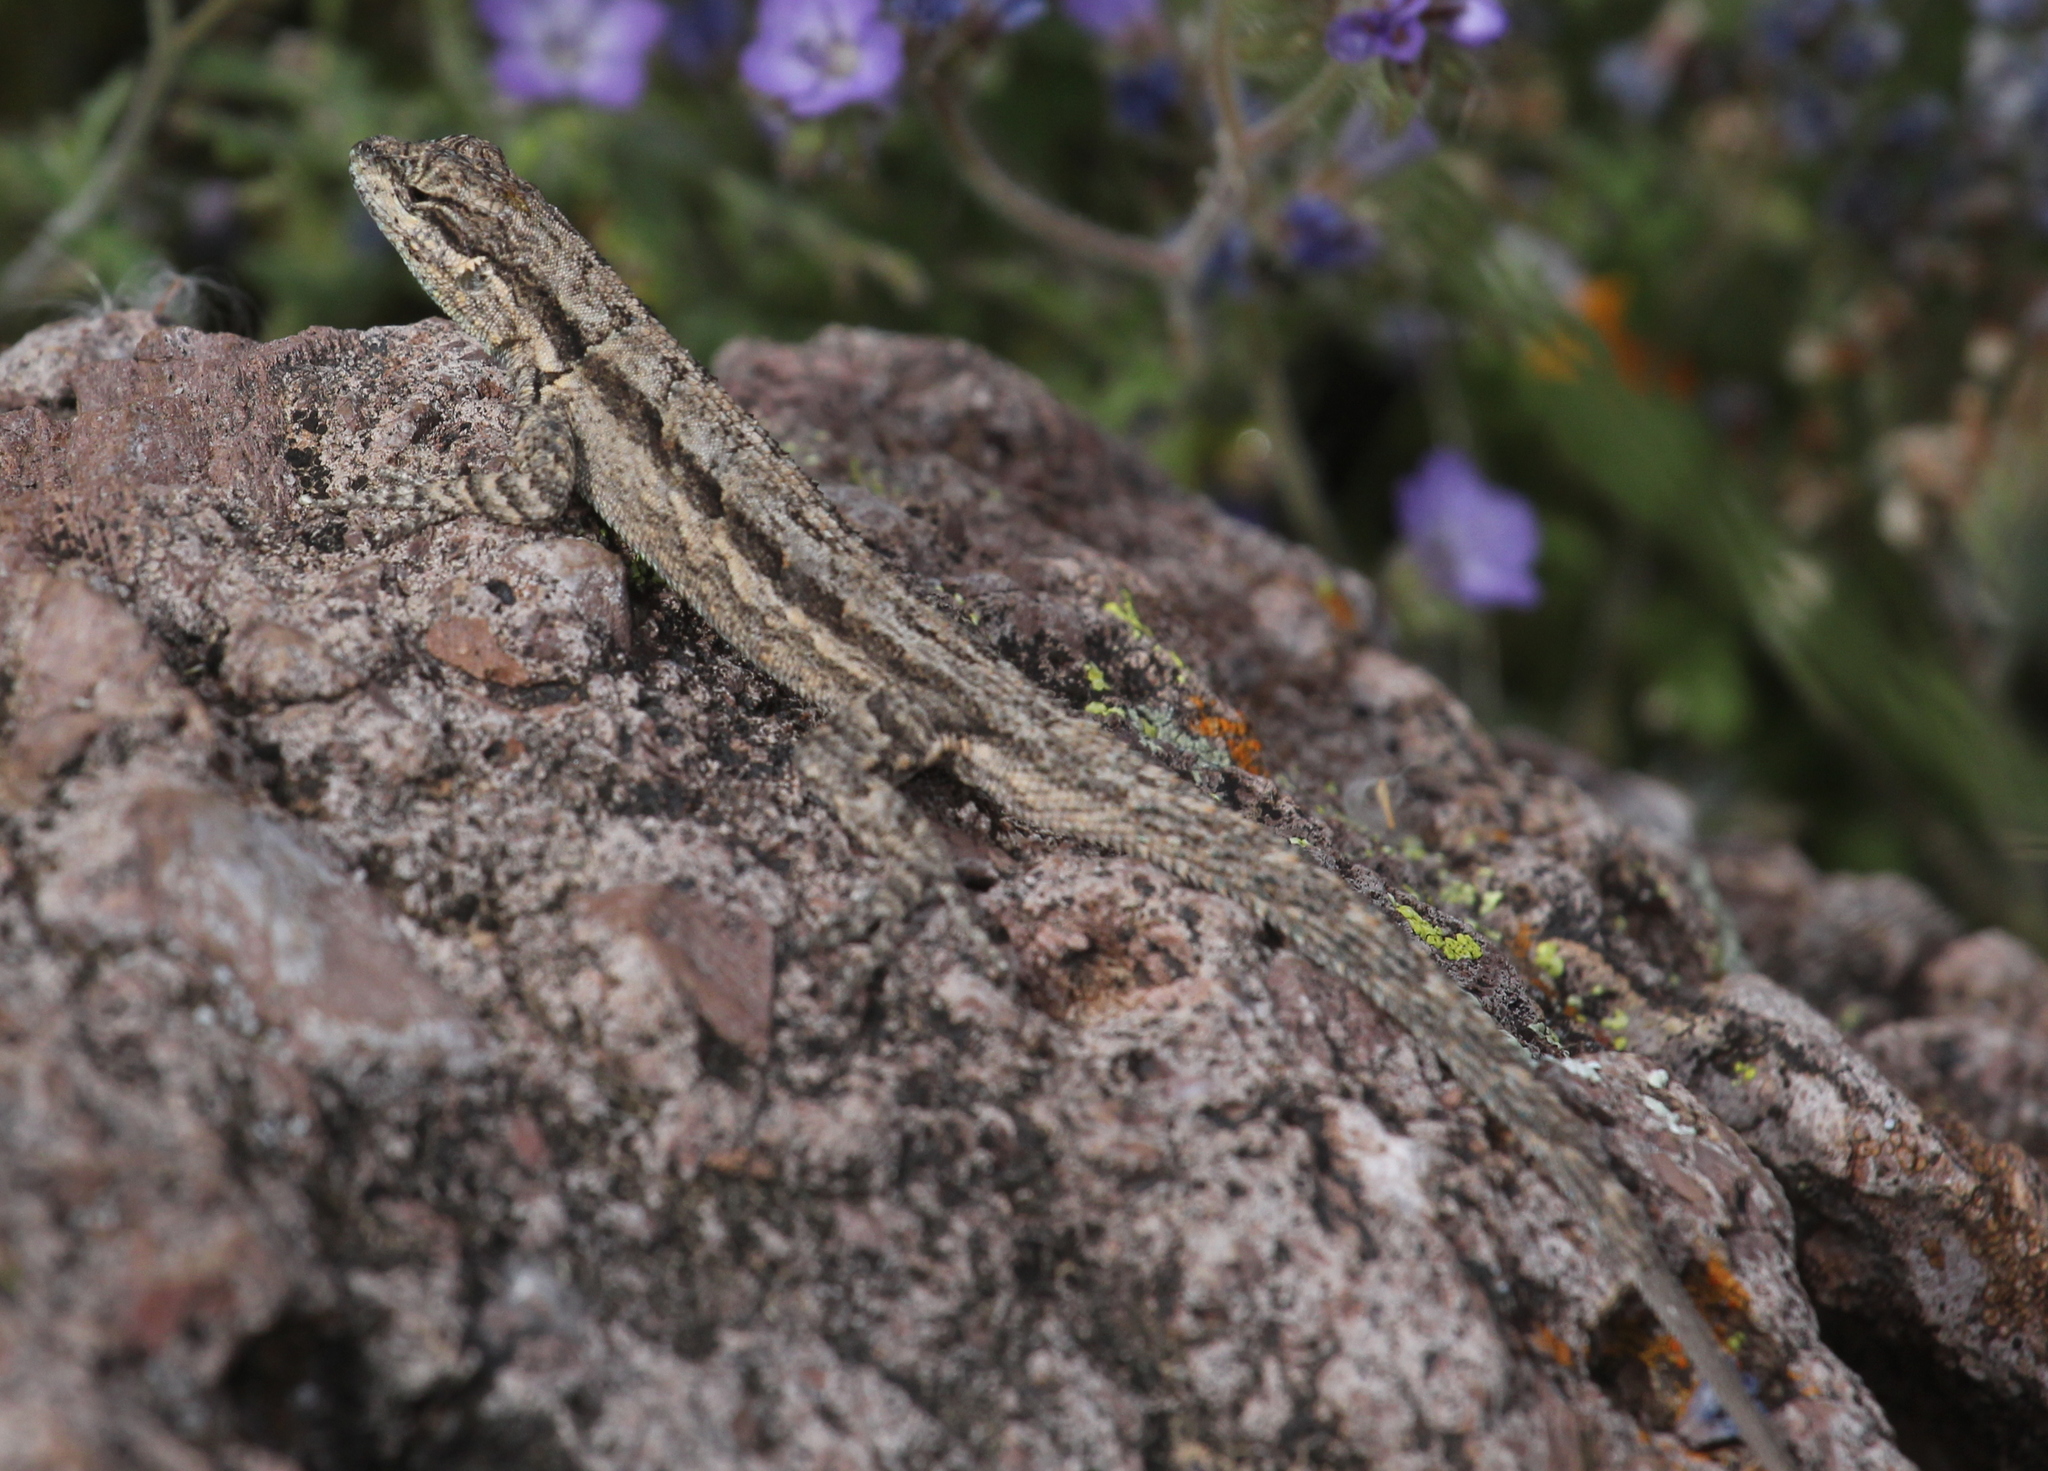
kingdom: Animalia
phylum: Chordata
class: Squamata
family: Phrynosomatidae
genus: Urosaurus
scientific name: Urosaurus ornatus
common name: Ornate tree lizard
